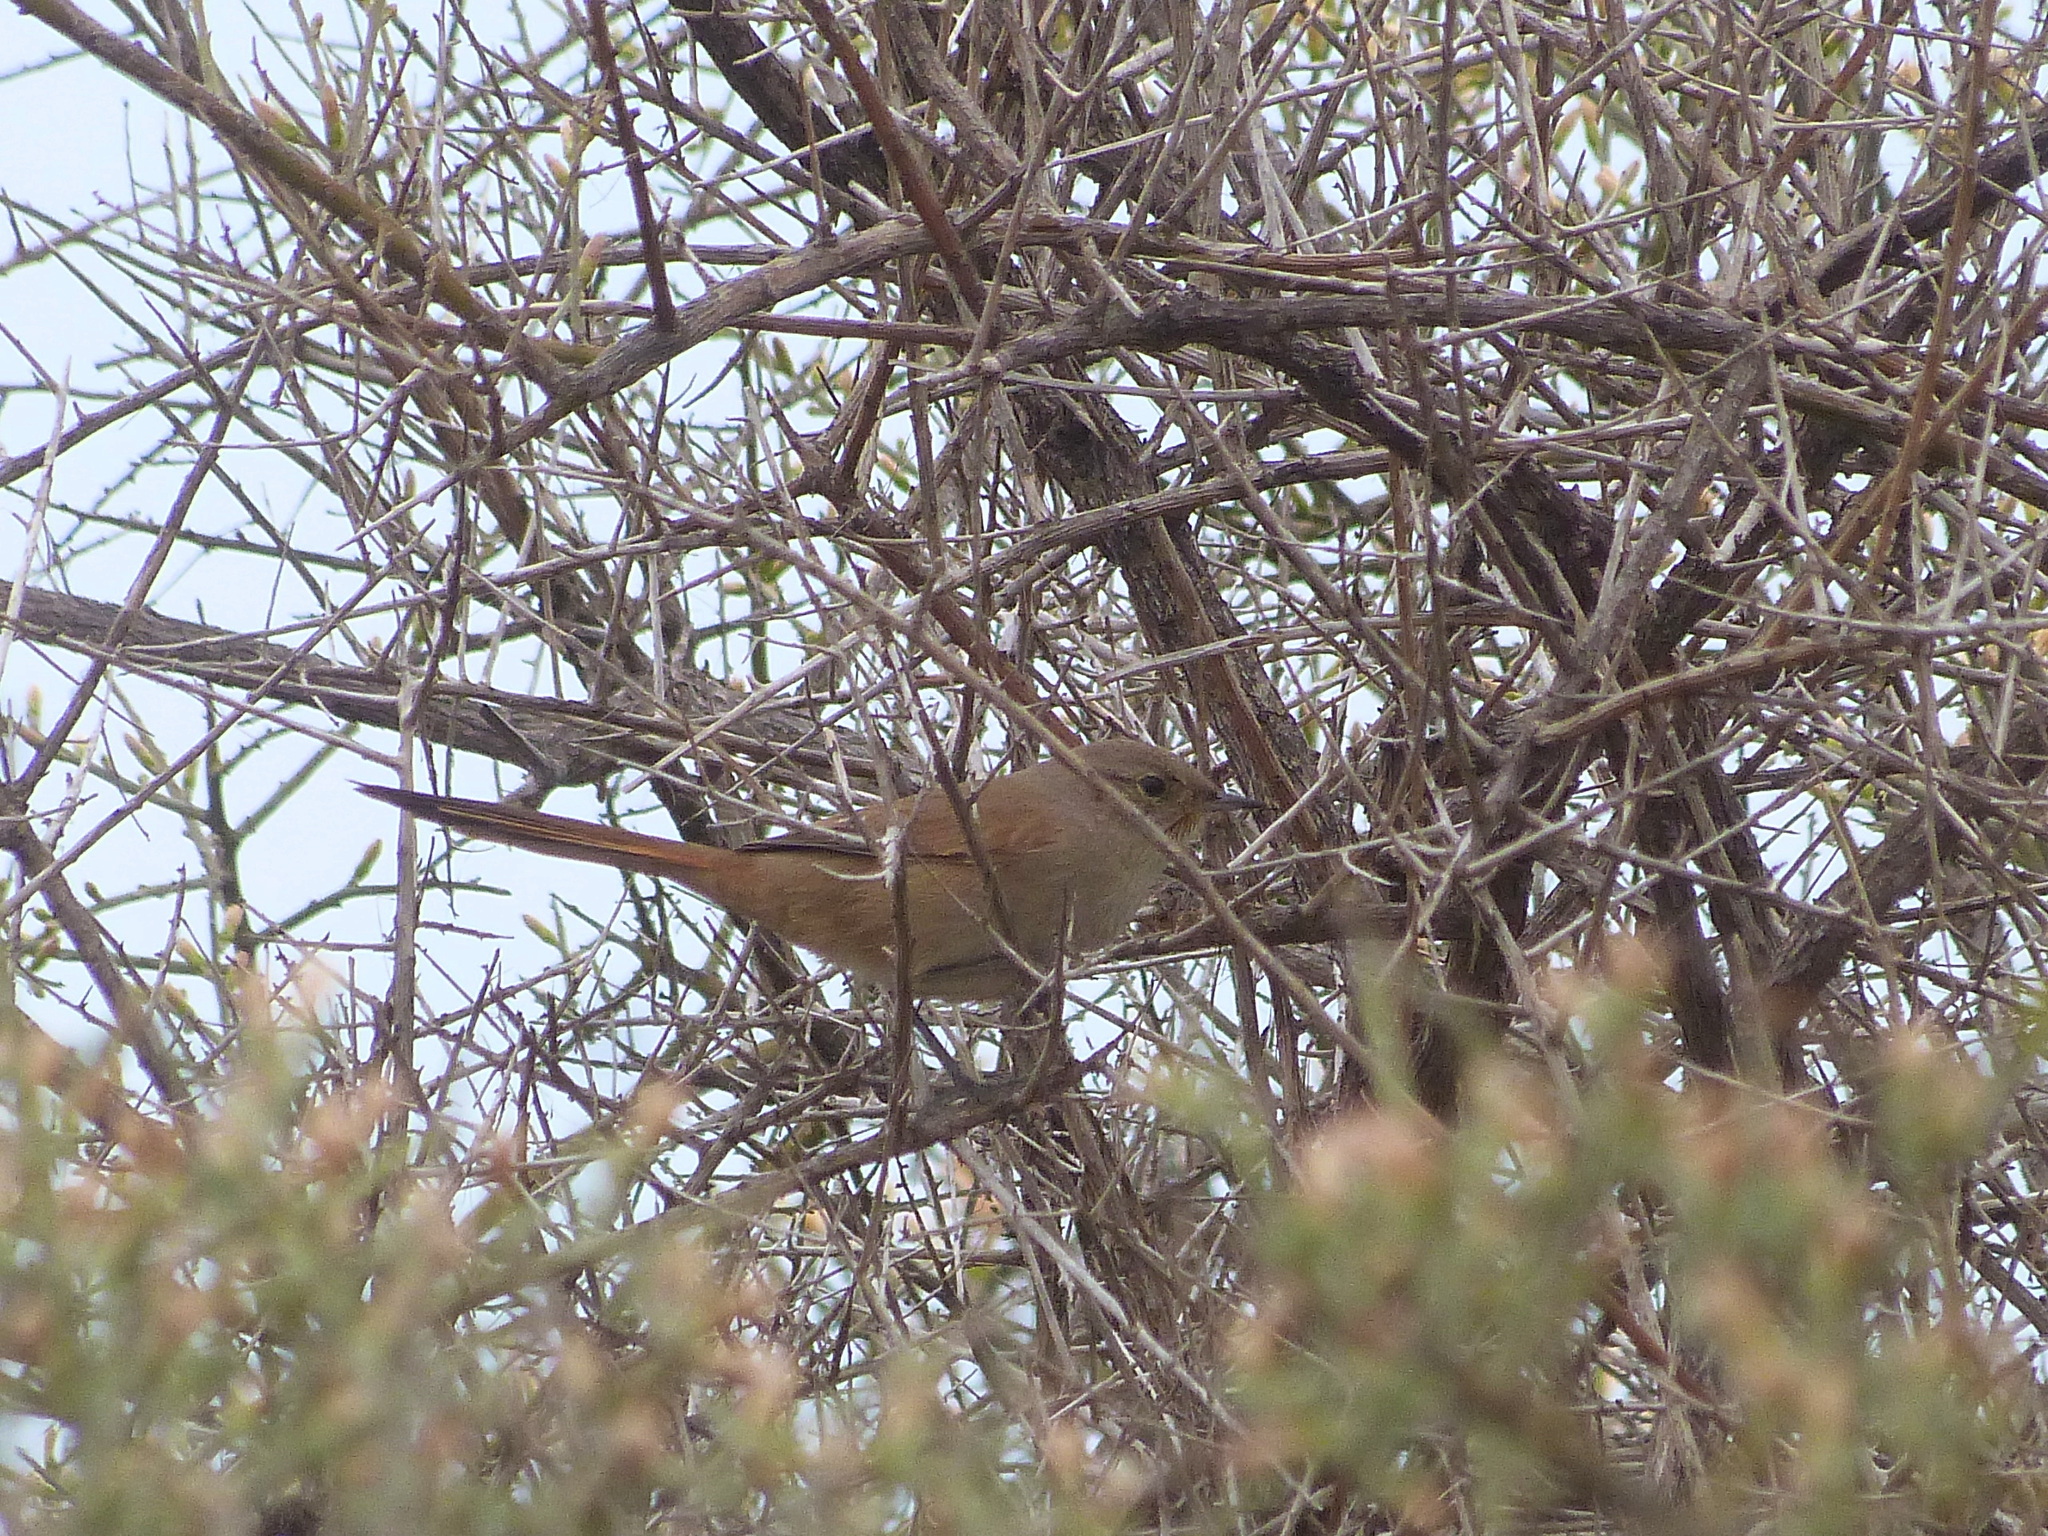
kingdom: Animalia
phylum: Chordata
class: Aves
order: Passeriformes
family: Furnariidae
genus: Asthenes
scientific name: Asthenes pyrrholeuca
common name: Sharp-billed canastero
